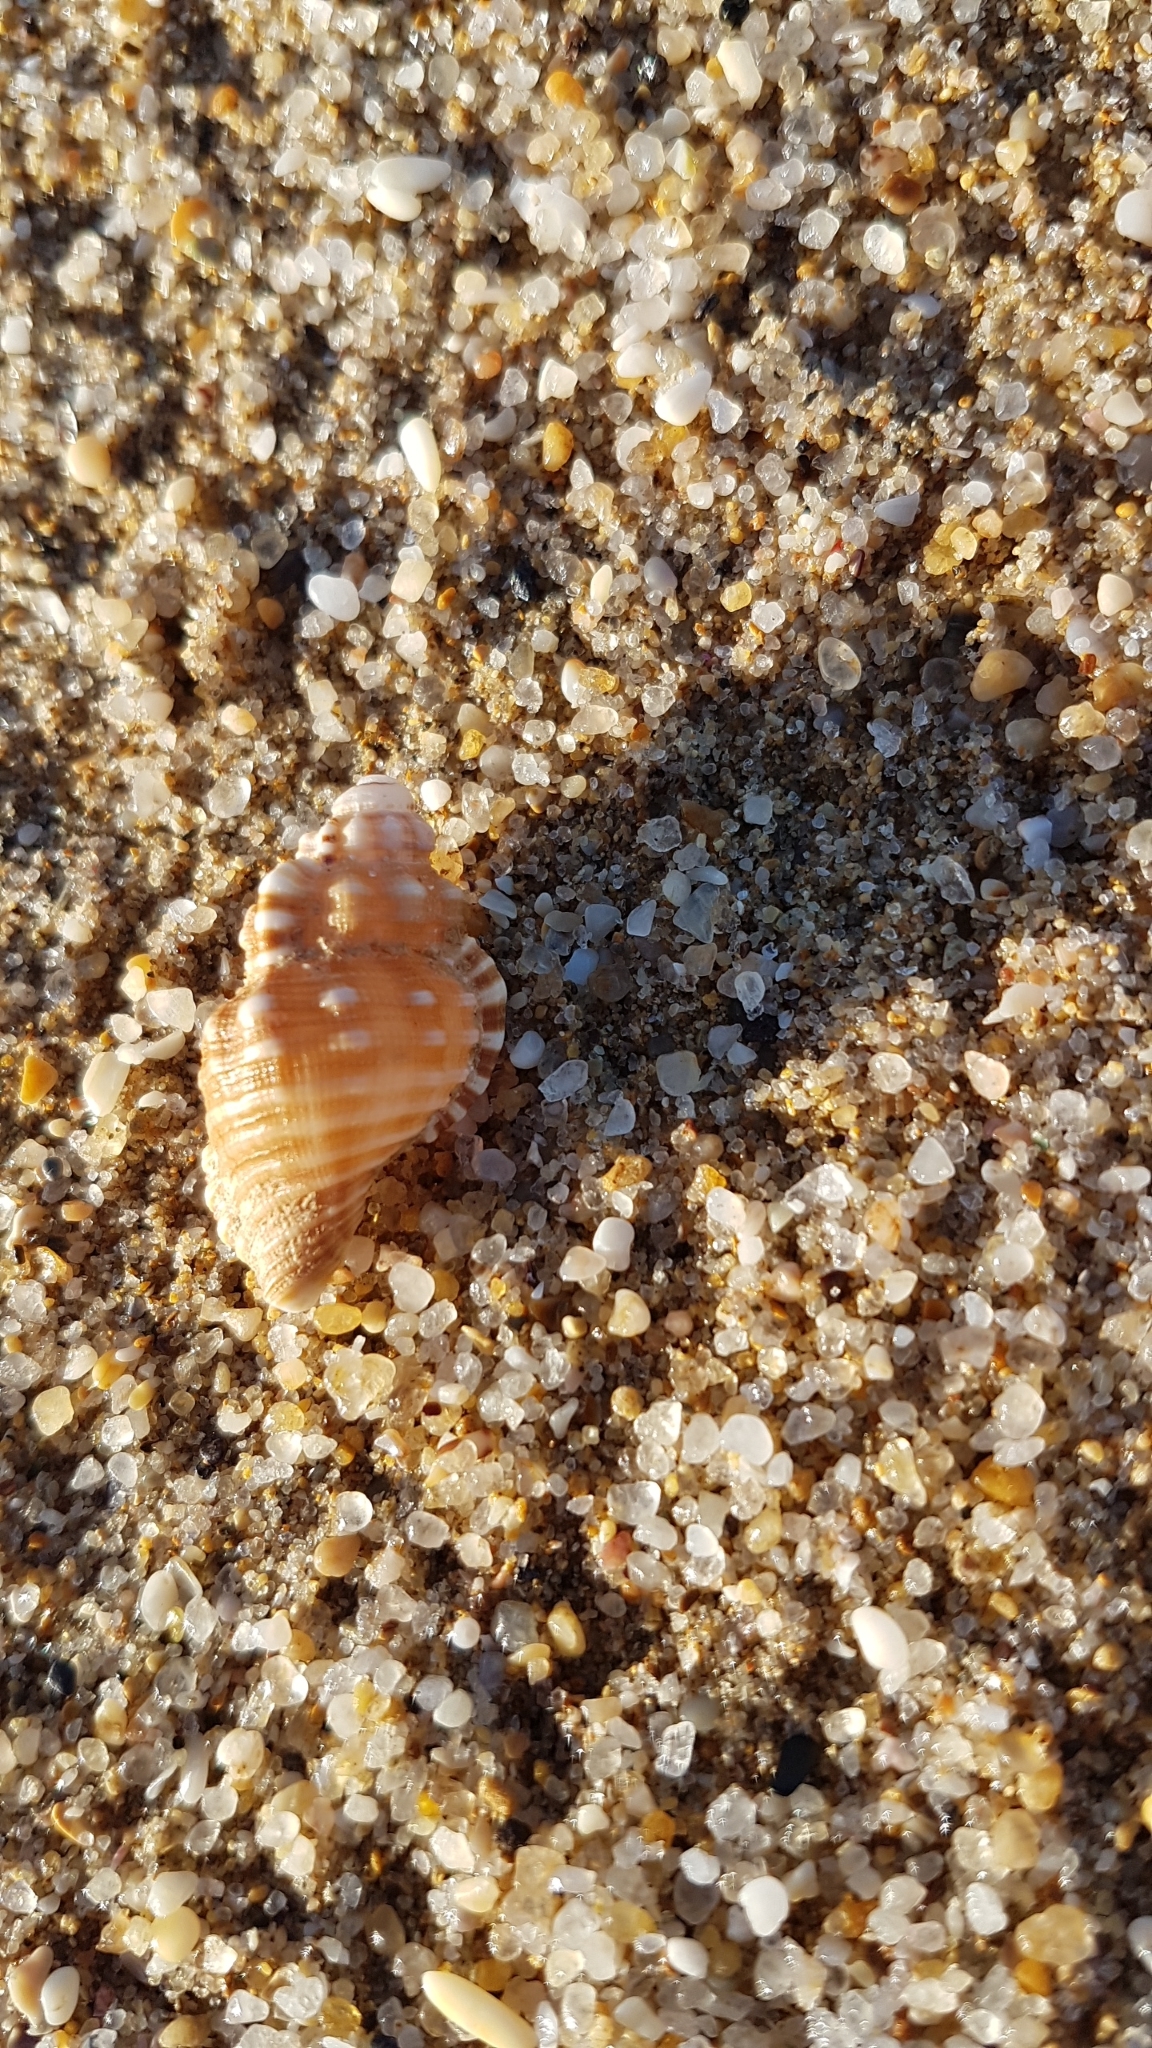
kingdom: Animalia
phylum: Mollusca
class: Gastropoda
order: Littorinimorpha
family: Cymatiidae
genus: Cabestana
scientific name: Cabestana tabulata
